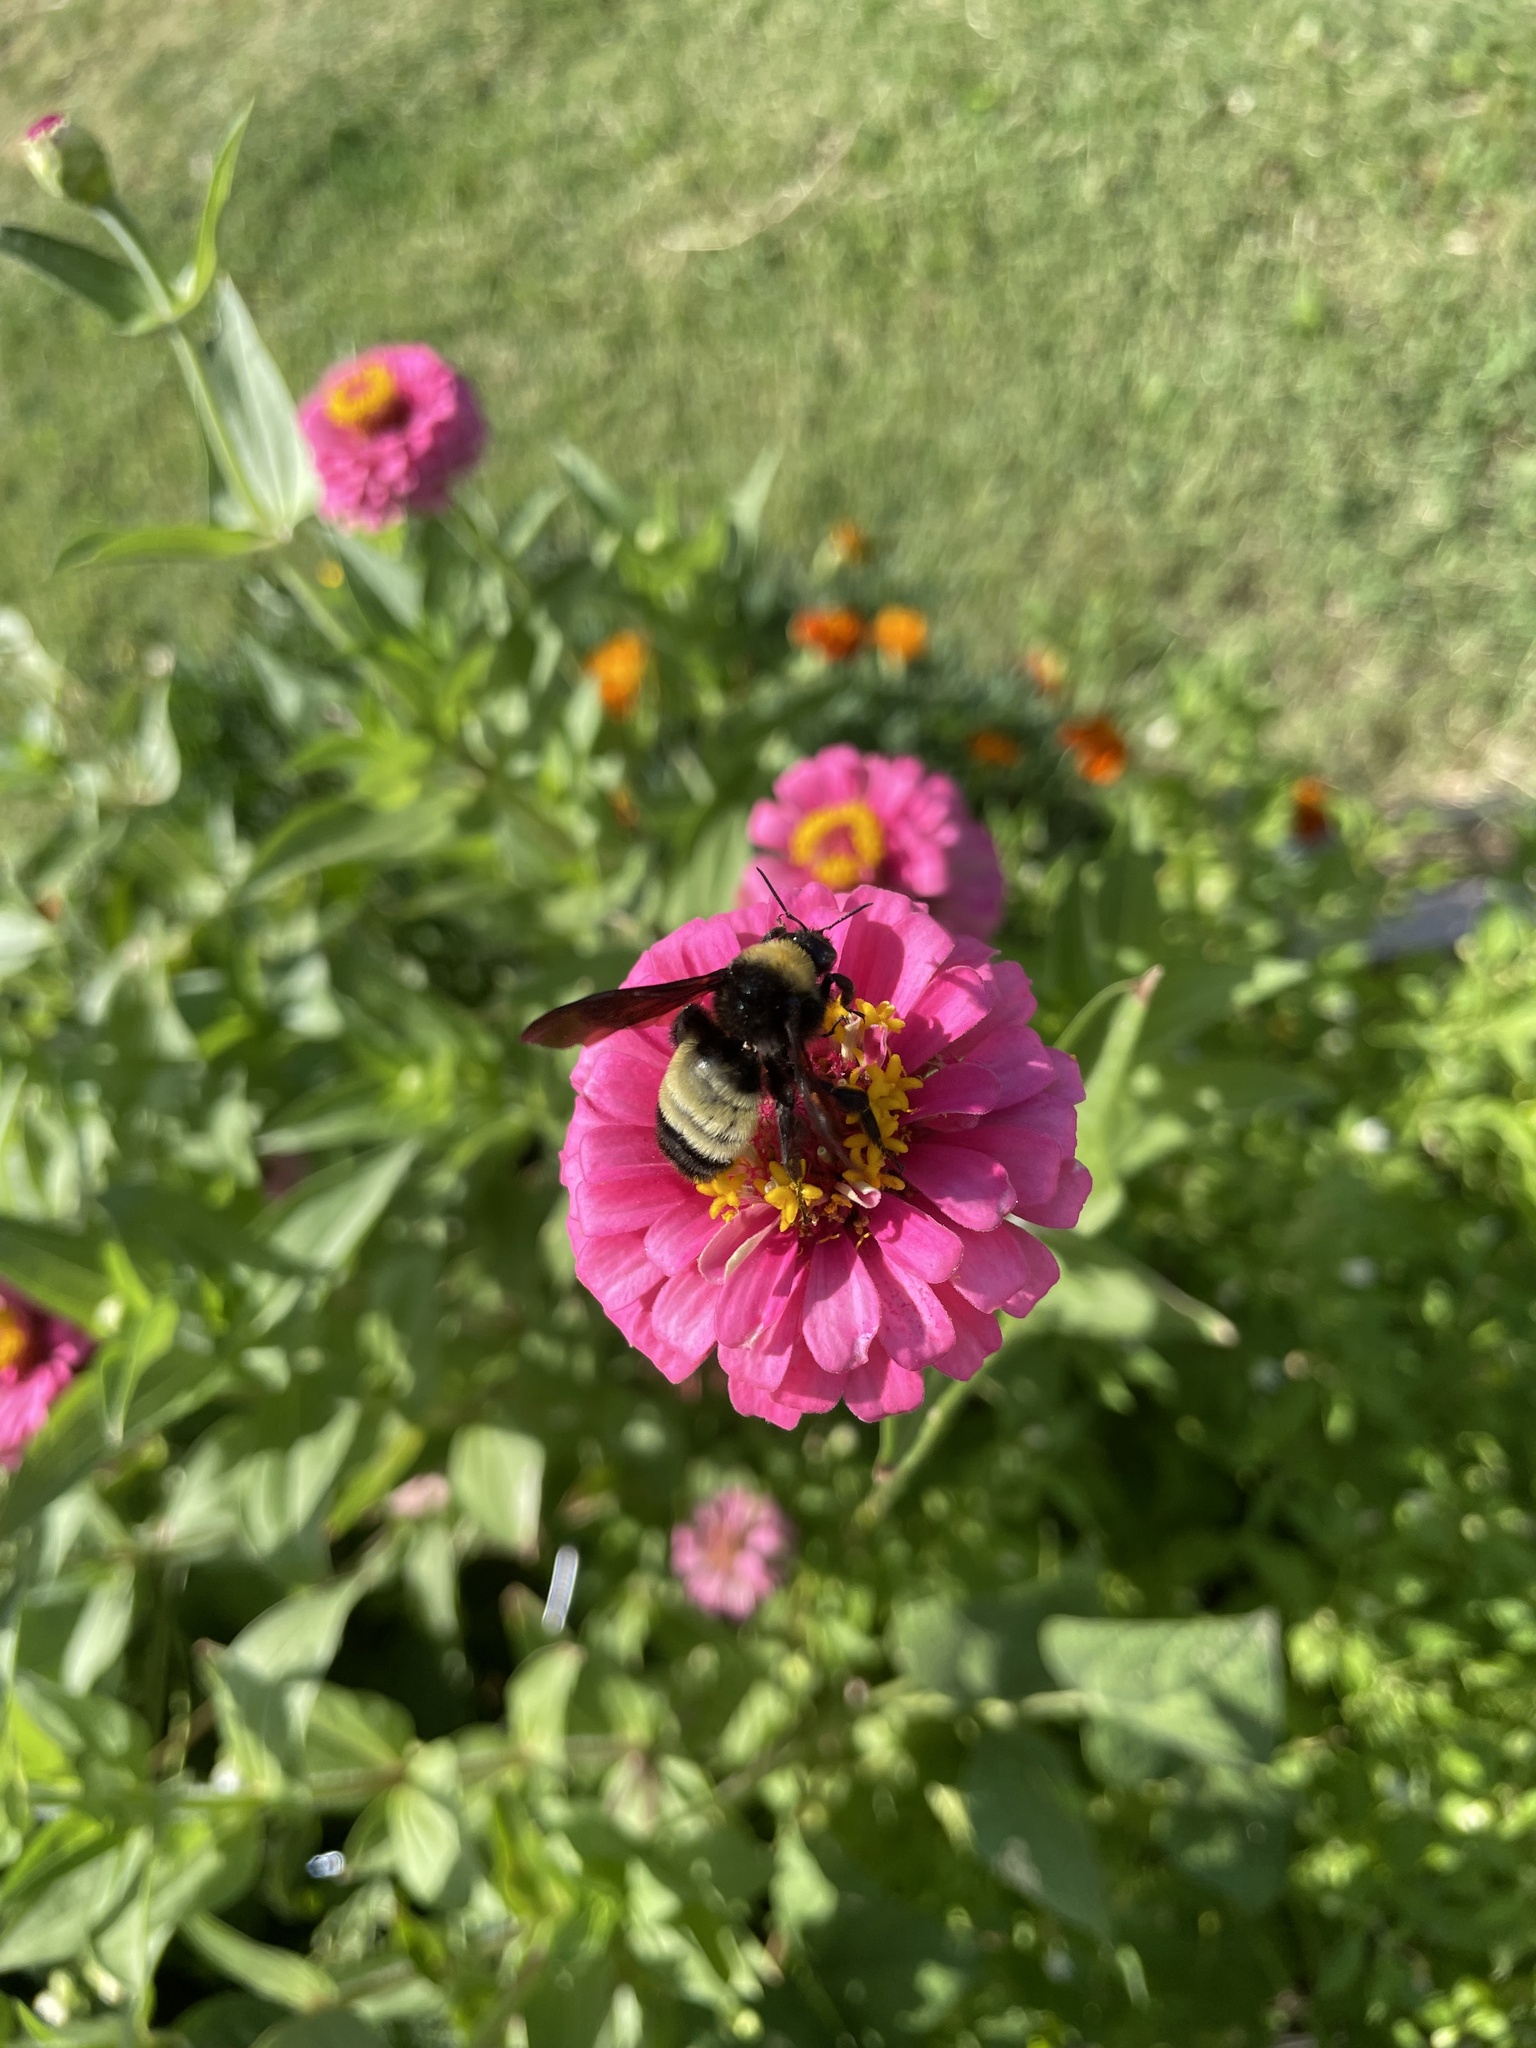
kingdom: Animalia
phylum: Arthropoda
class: Insecta
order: Hymenoptera
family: Apidae
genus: Bombus
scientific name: Bombus pensylvanicus
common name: Bumble bee
